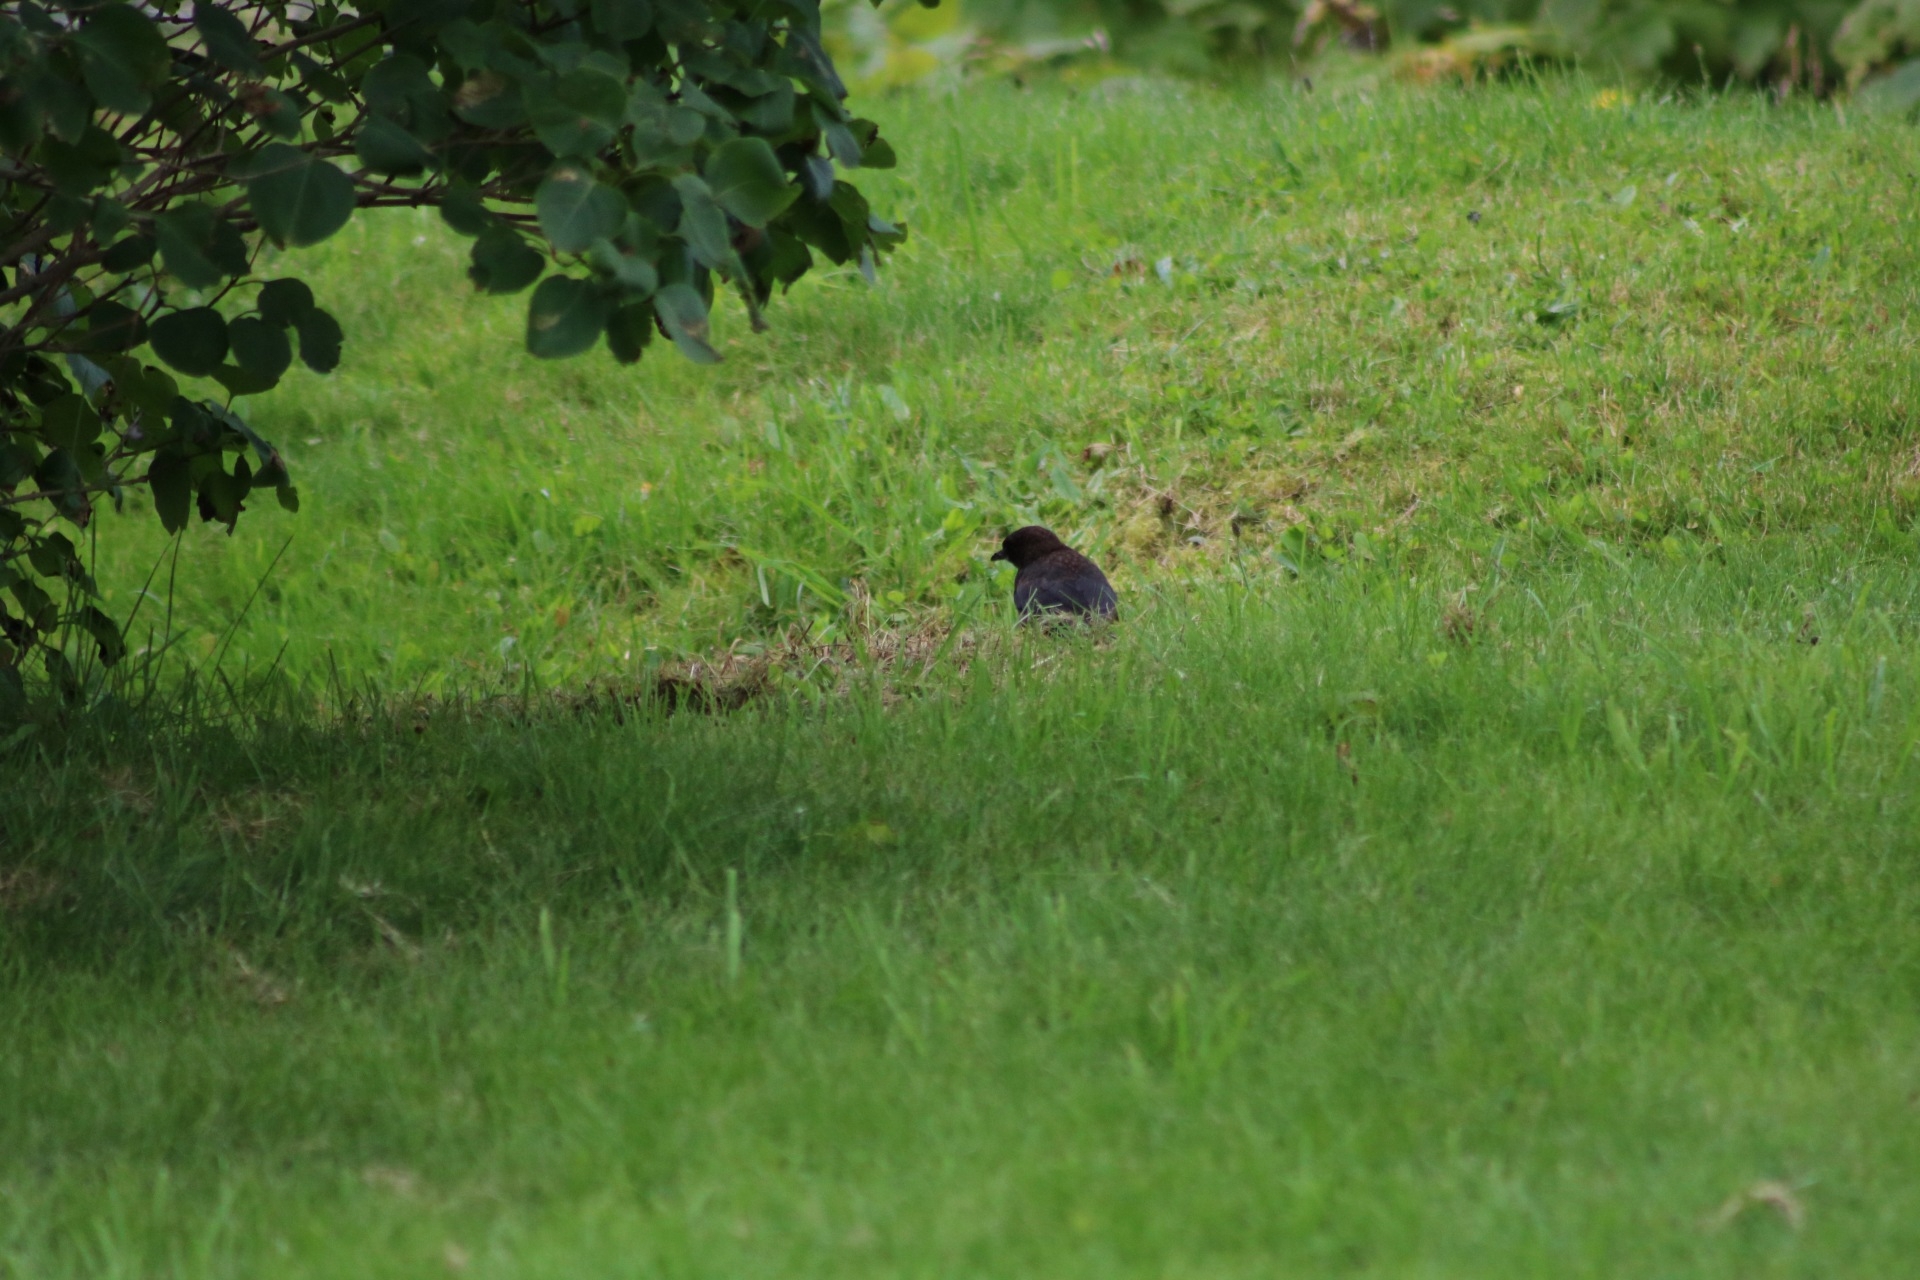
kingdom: Animalia
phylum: Chordata
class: Aves
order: Passeriformes
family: Turdidae
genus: Turdus
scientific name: Turdus merula
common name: Common blackbird
